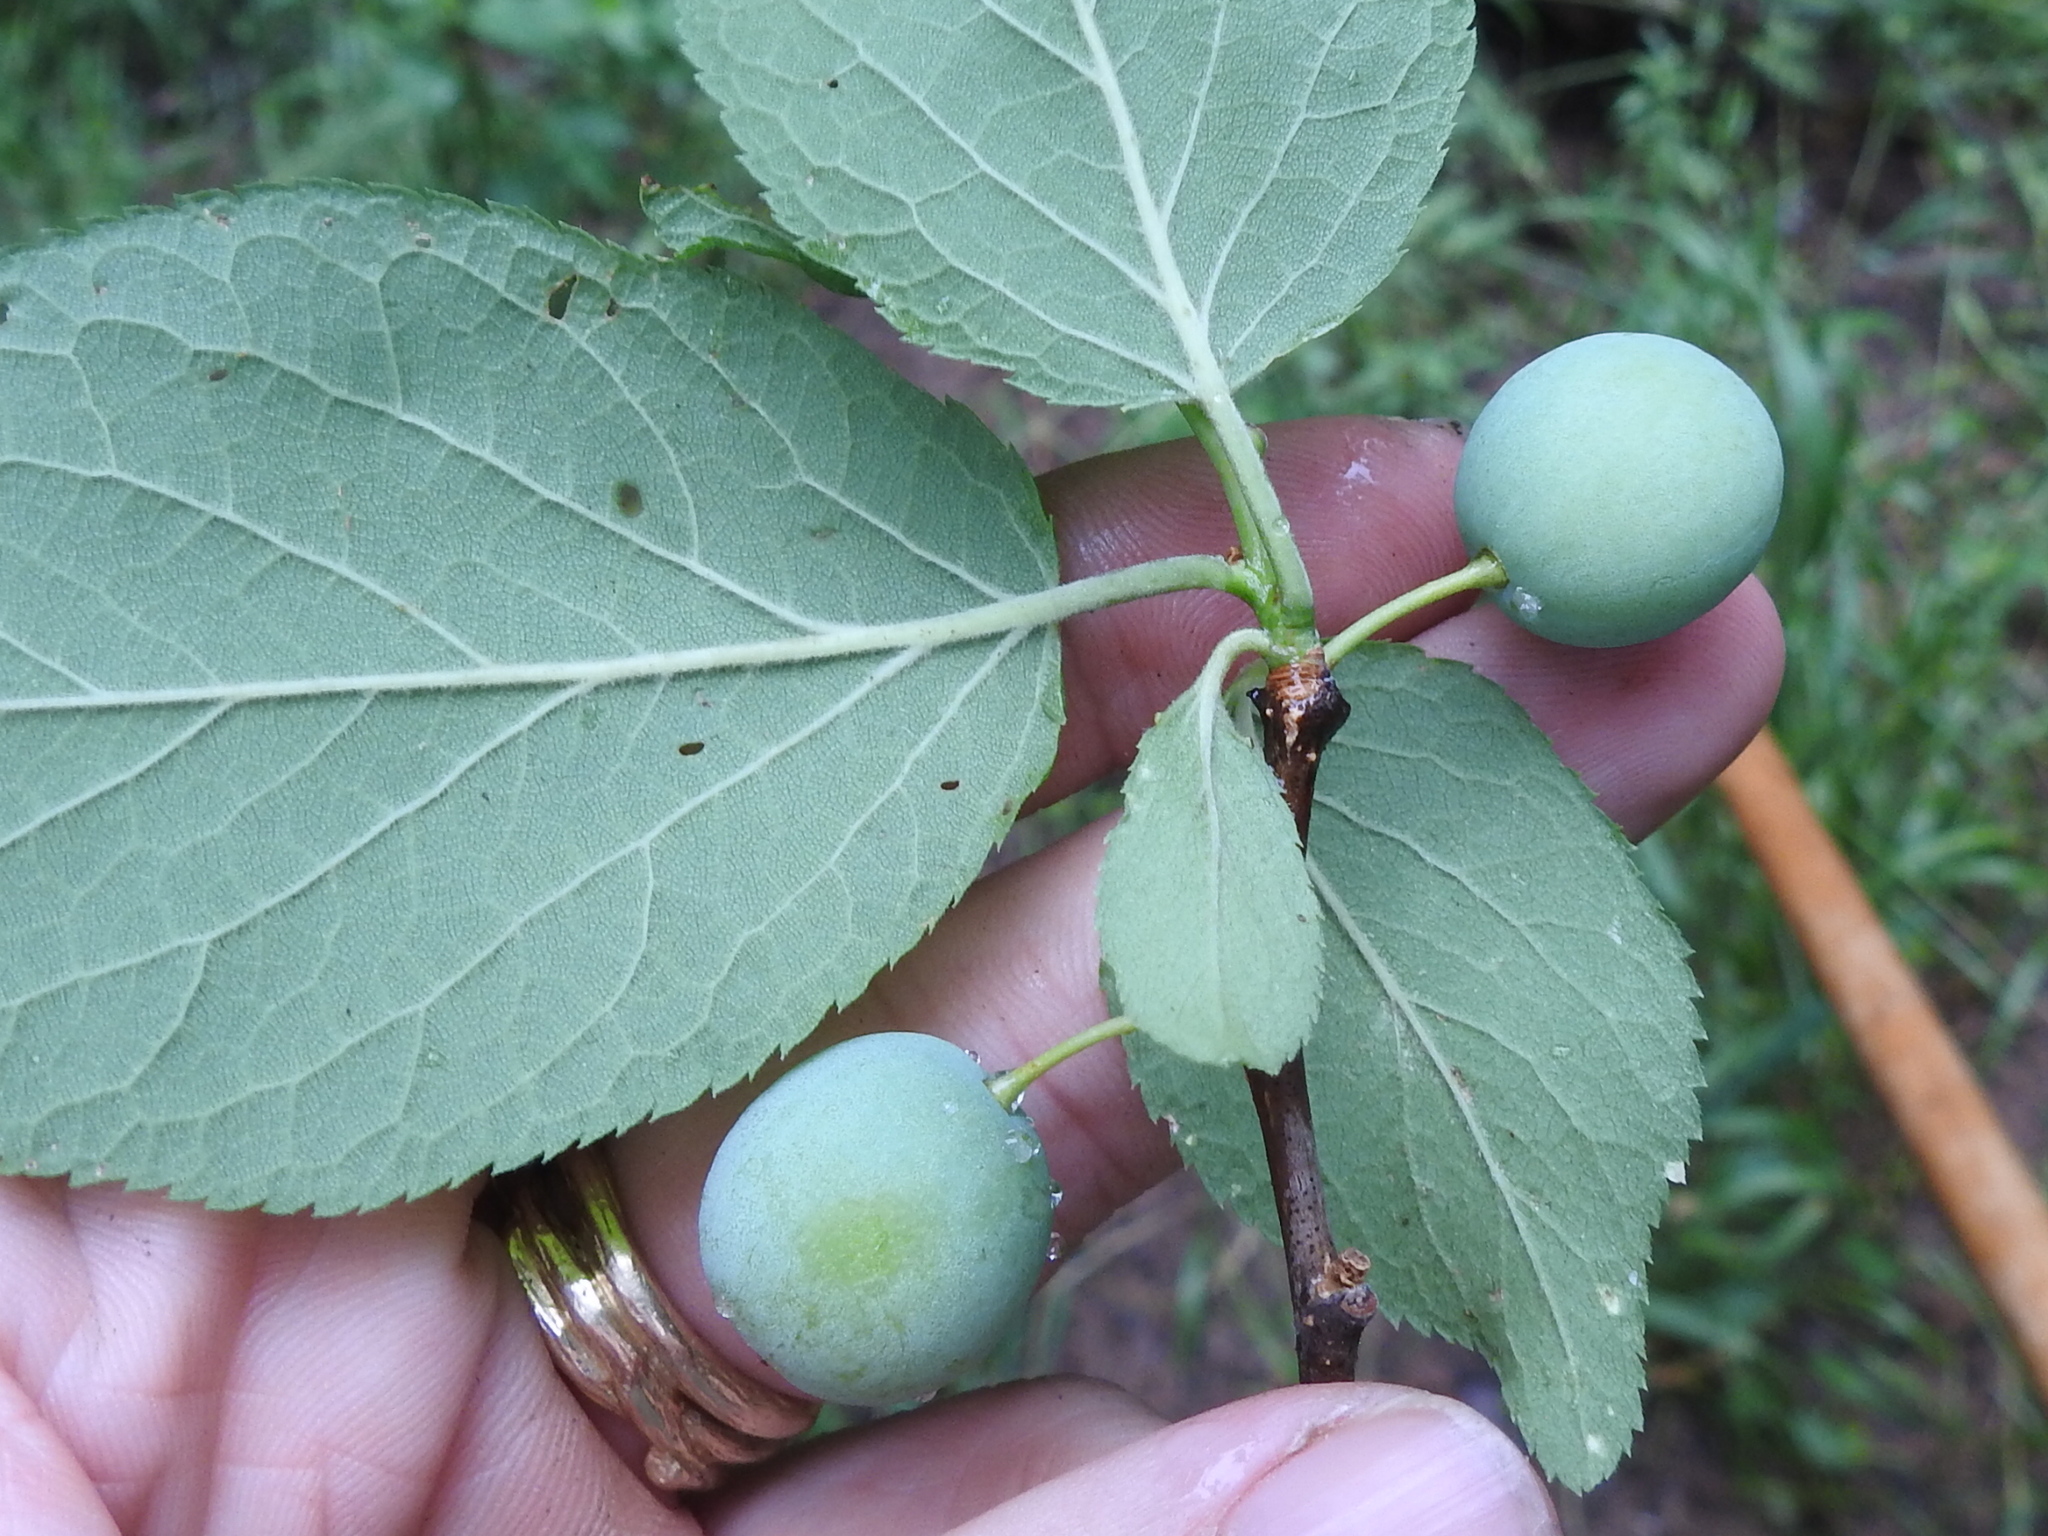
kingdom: Plantae
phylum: Tracheophyta
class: Magnoliopsida
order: Rosales
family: Rosaceae
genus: Prunus
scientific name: Prunus mexicana
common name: Mexican plum
